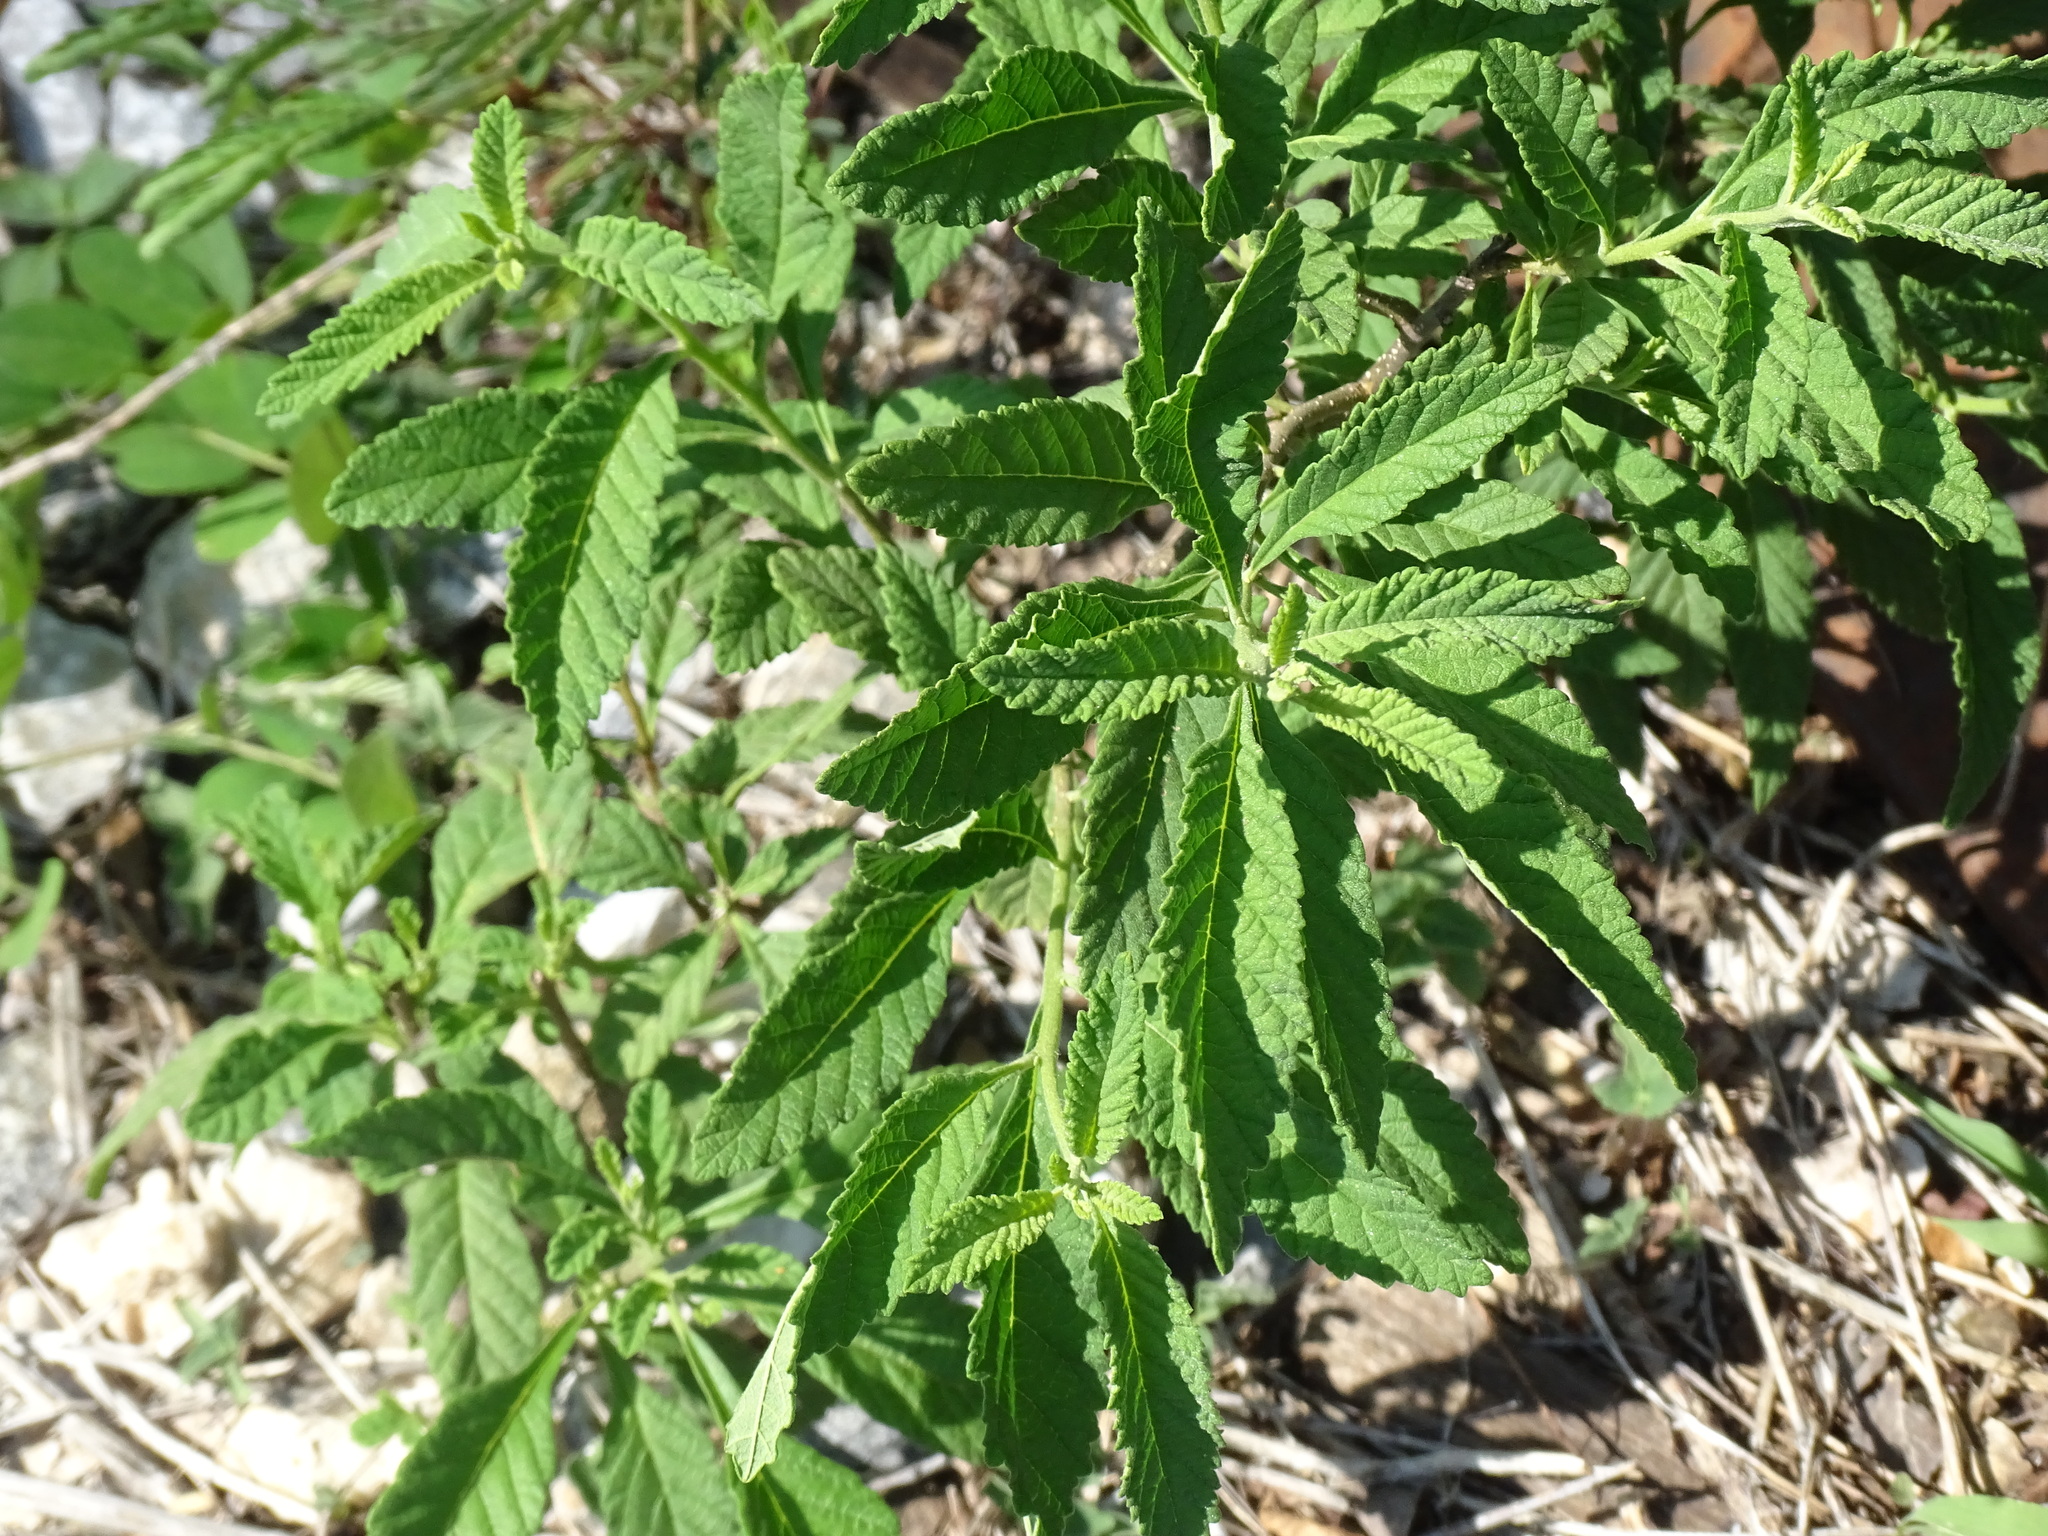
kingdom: Plantae
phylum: Tracheophyta
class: Magnoliopsida
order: Boraginales
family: Cordiaceae
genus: Varronia
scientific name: Varronia curassavica
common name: Black sage
